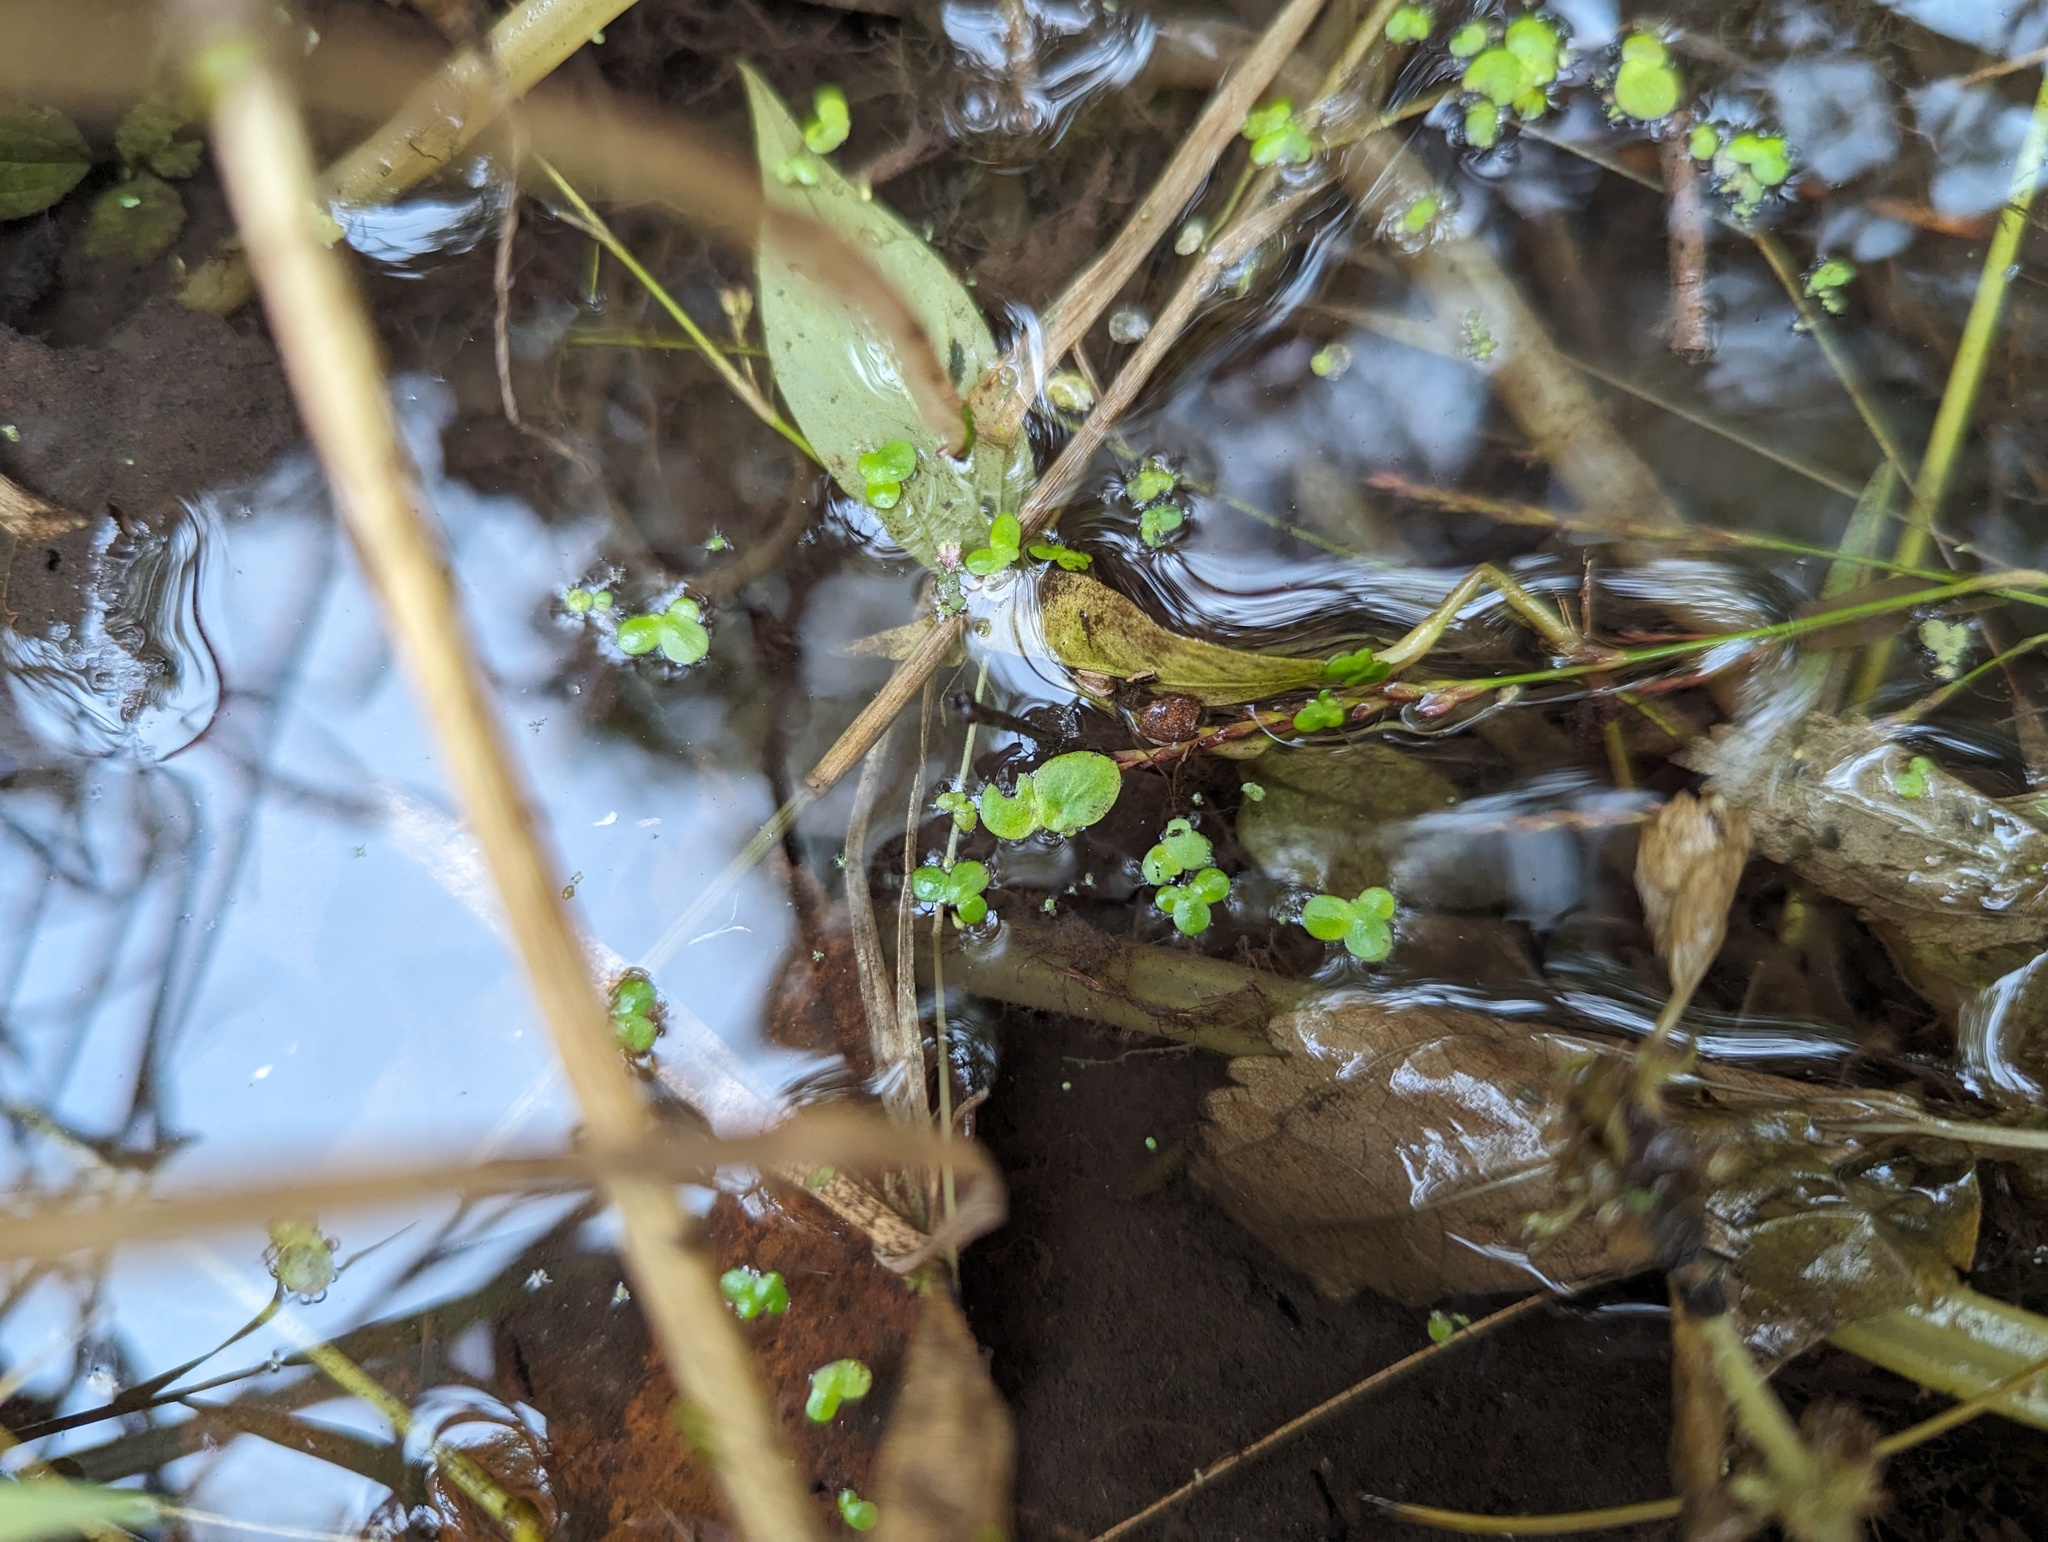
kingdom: Plantae
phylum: Tracheophyta
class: Liliopsida
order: Alismatales
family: Araceae
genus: Spirodela
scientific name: Spirodela polyrhiza
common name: Great duckweed
